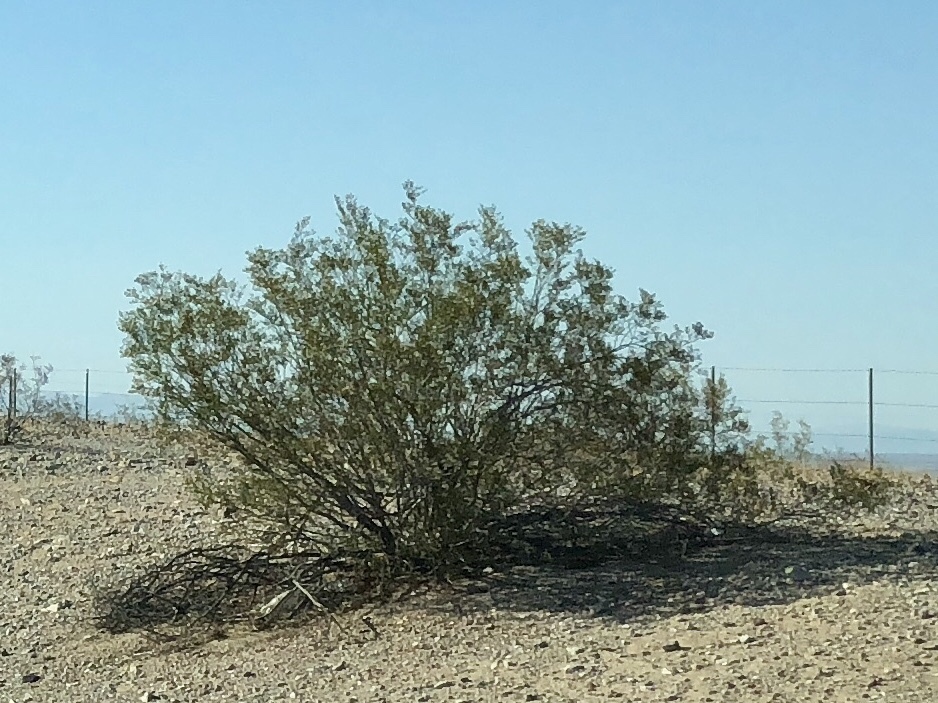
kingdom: Plantae
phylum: Tracheophyta
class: Magnoliopsida
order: Zygophyllales
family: Zygophyllaceae
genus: Larrea
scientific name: Larrea tridentata
